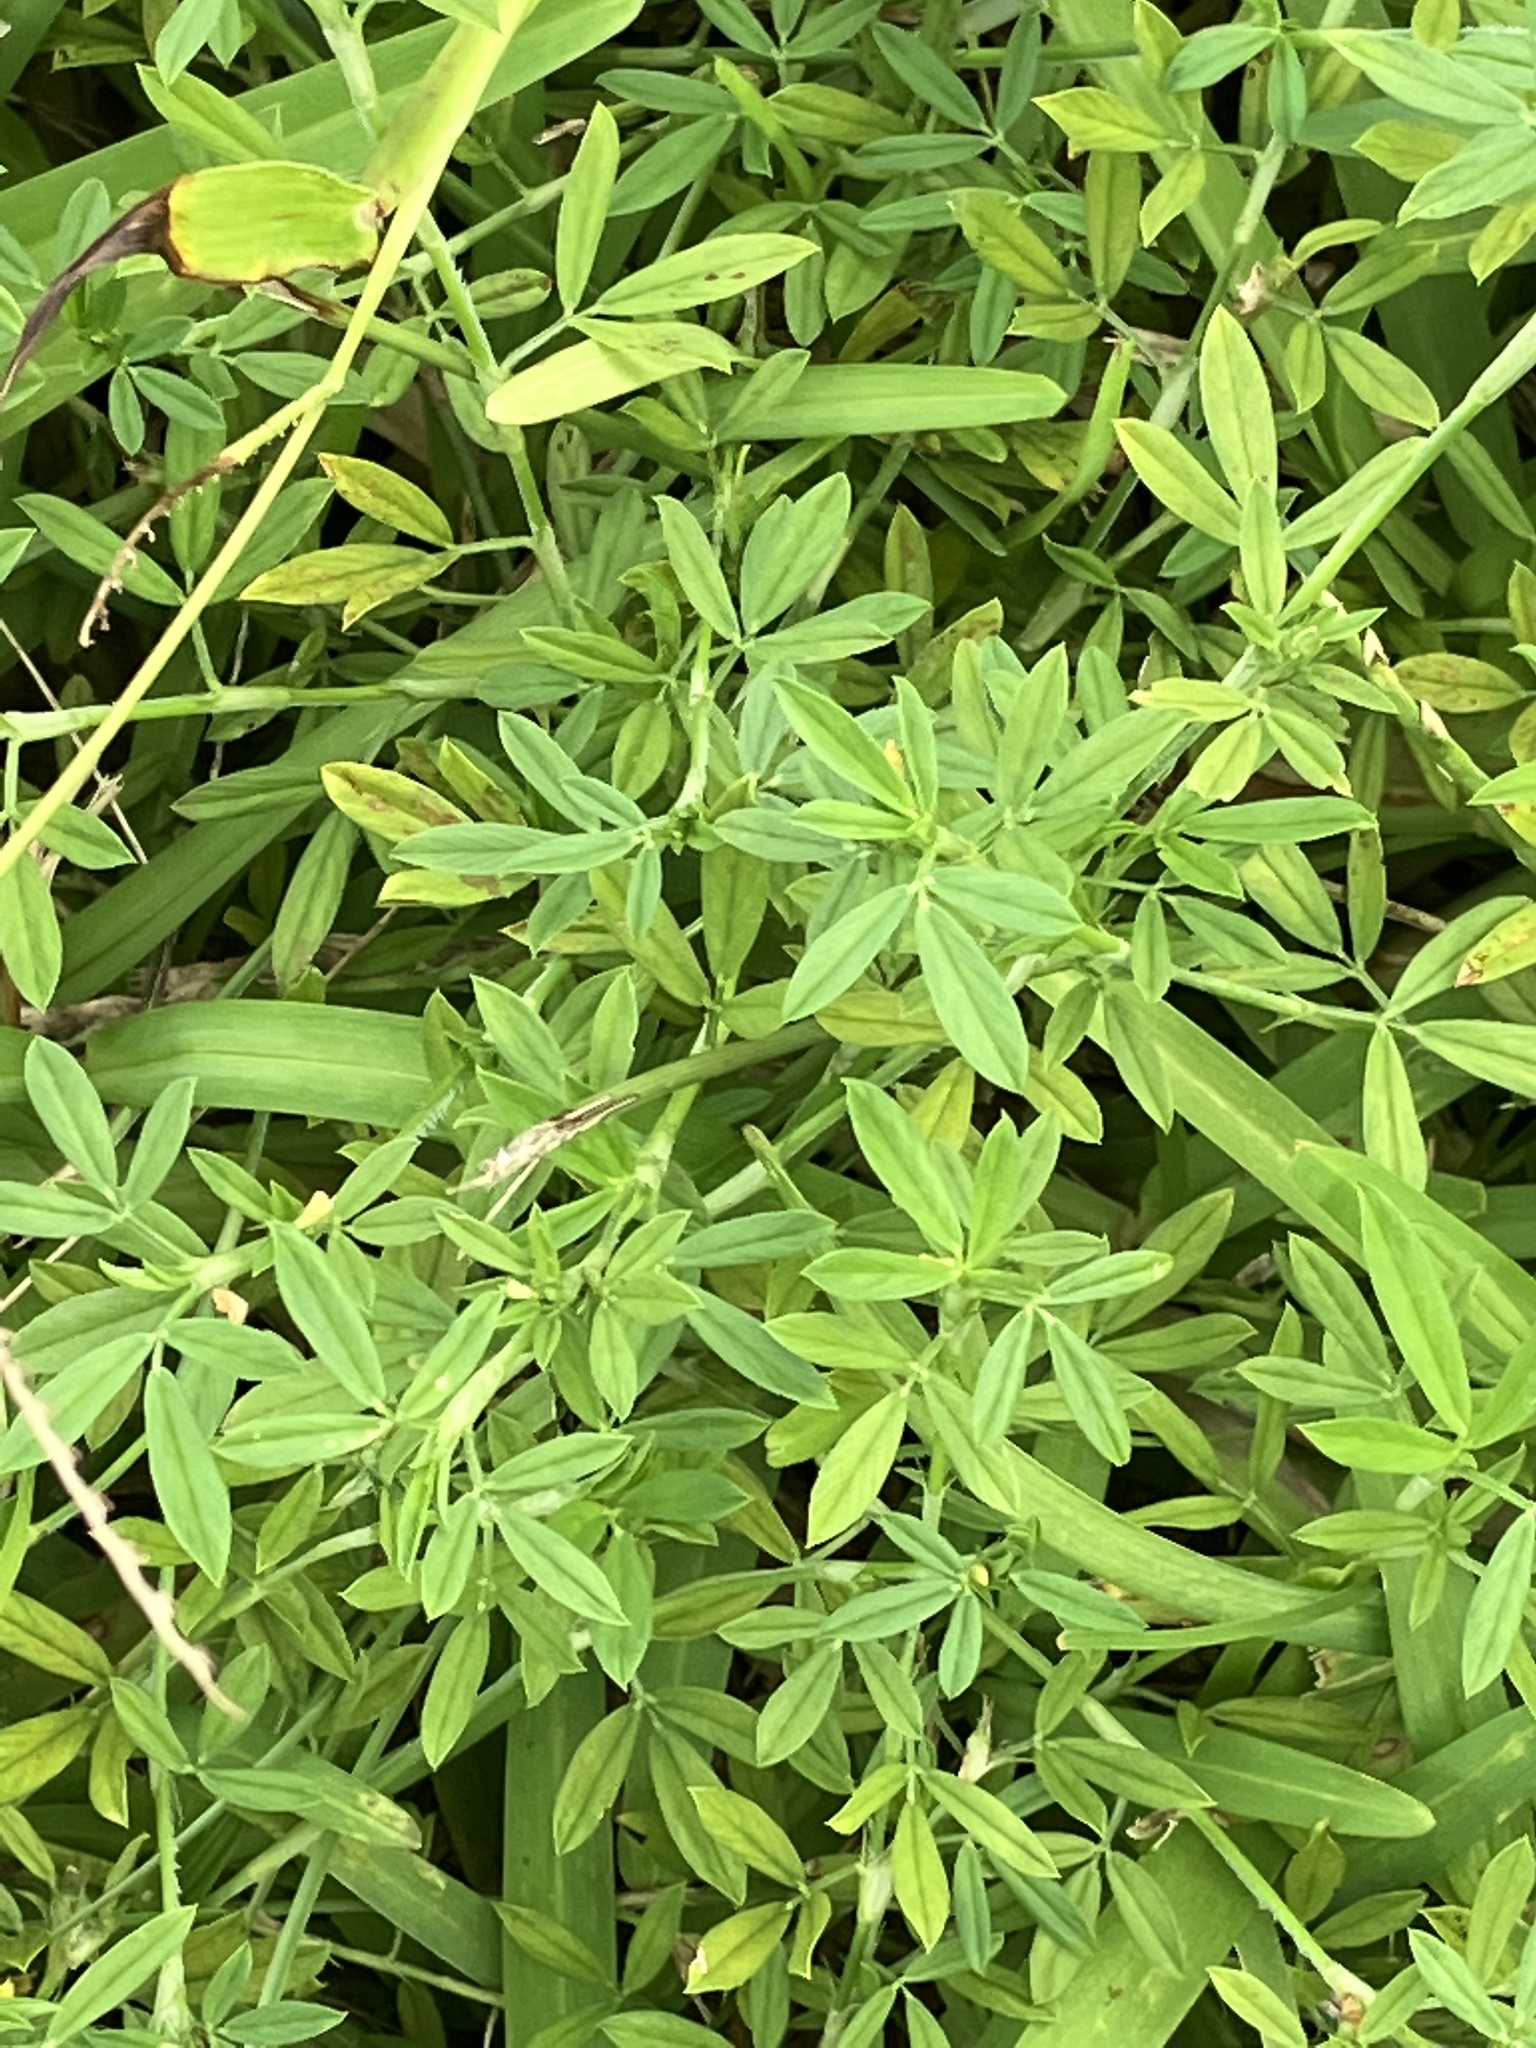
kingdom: Plantae
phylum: Tracheophyta
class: Magnoliopsida
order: Fabales
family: Fabaceae
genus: Stylosanthes
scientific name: Stylosanthes scabra
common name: Pencilflower
